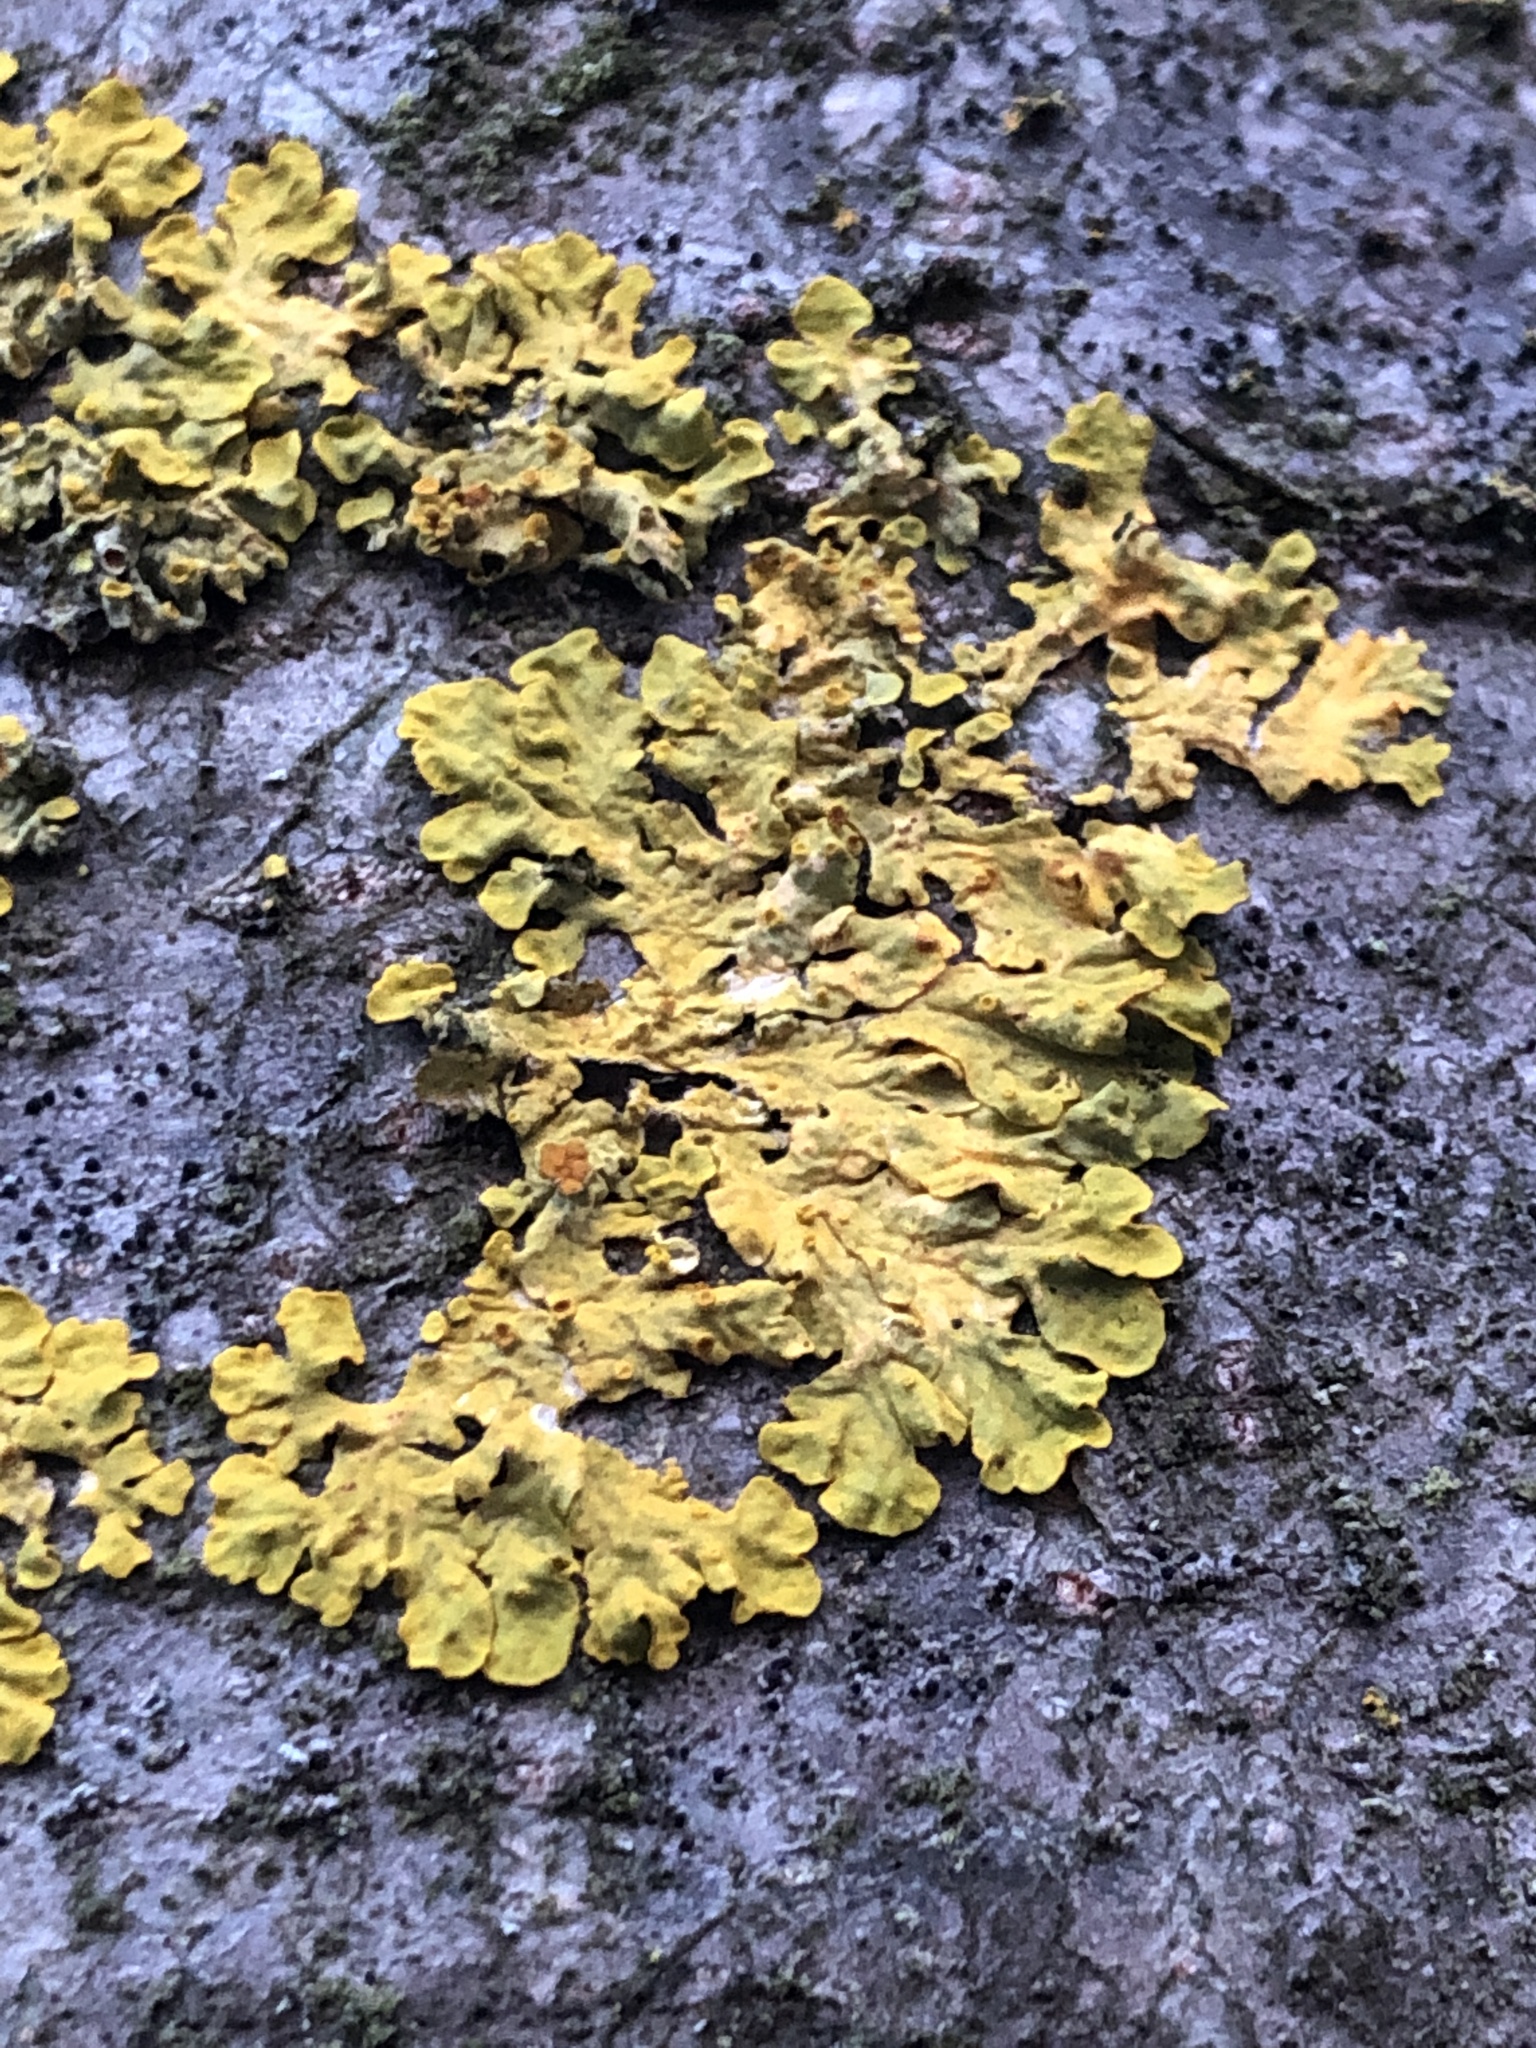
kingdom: Fungi
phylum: Ascomycota
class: Lecanoromycetes
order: Teloschistales
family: Teloschistaceae
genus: Xanthoria
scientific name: Xanthoria parietina
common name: Common orange lichen
